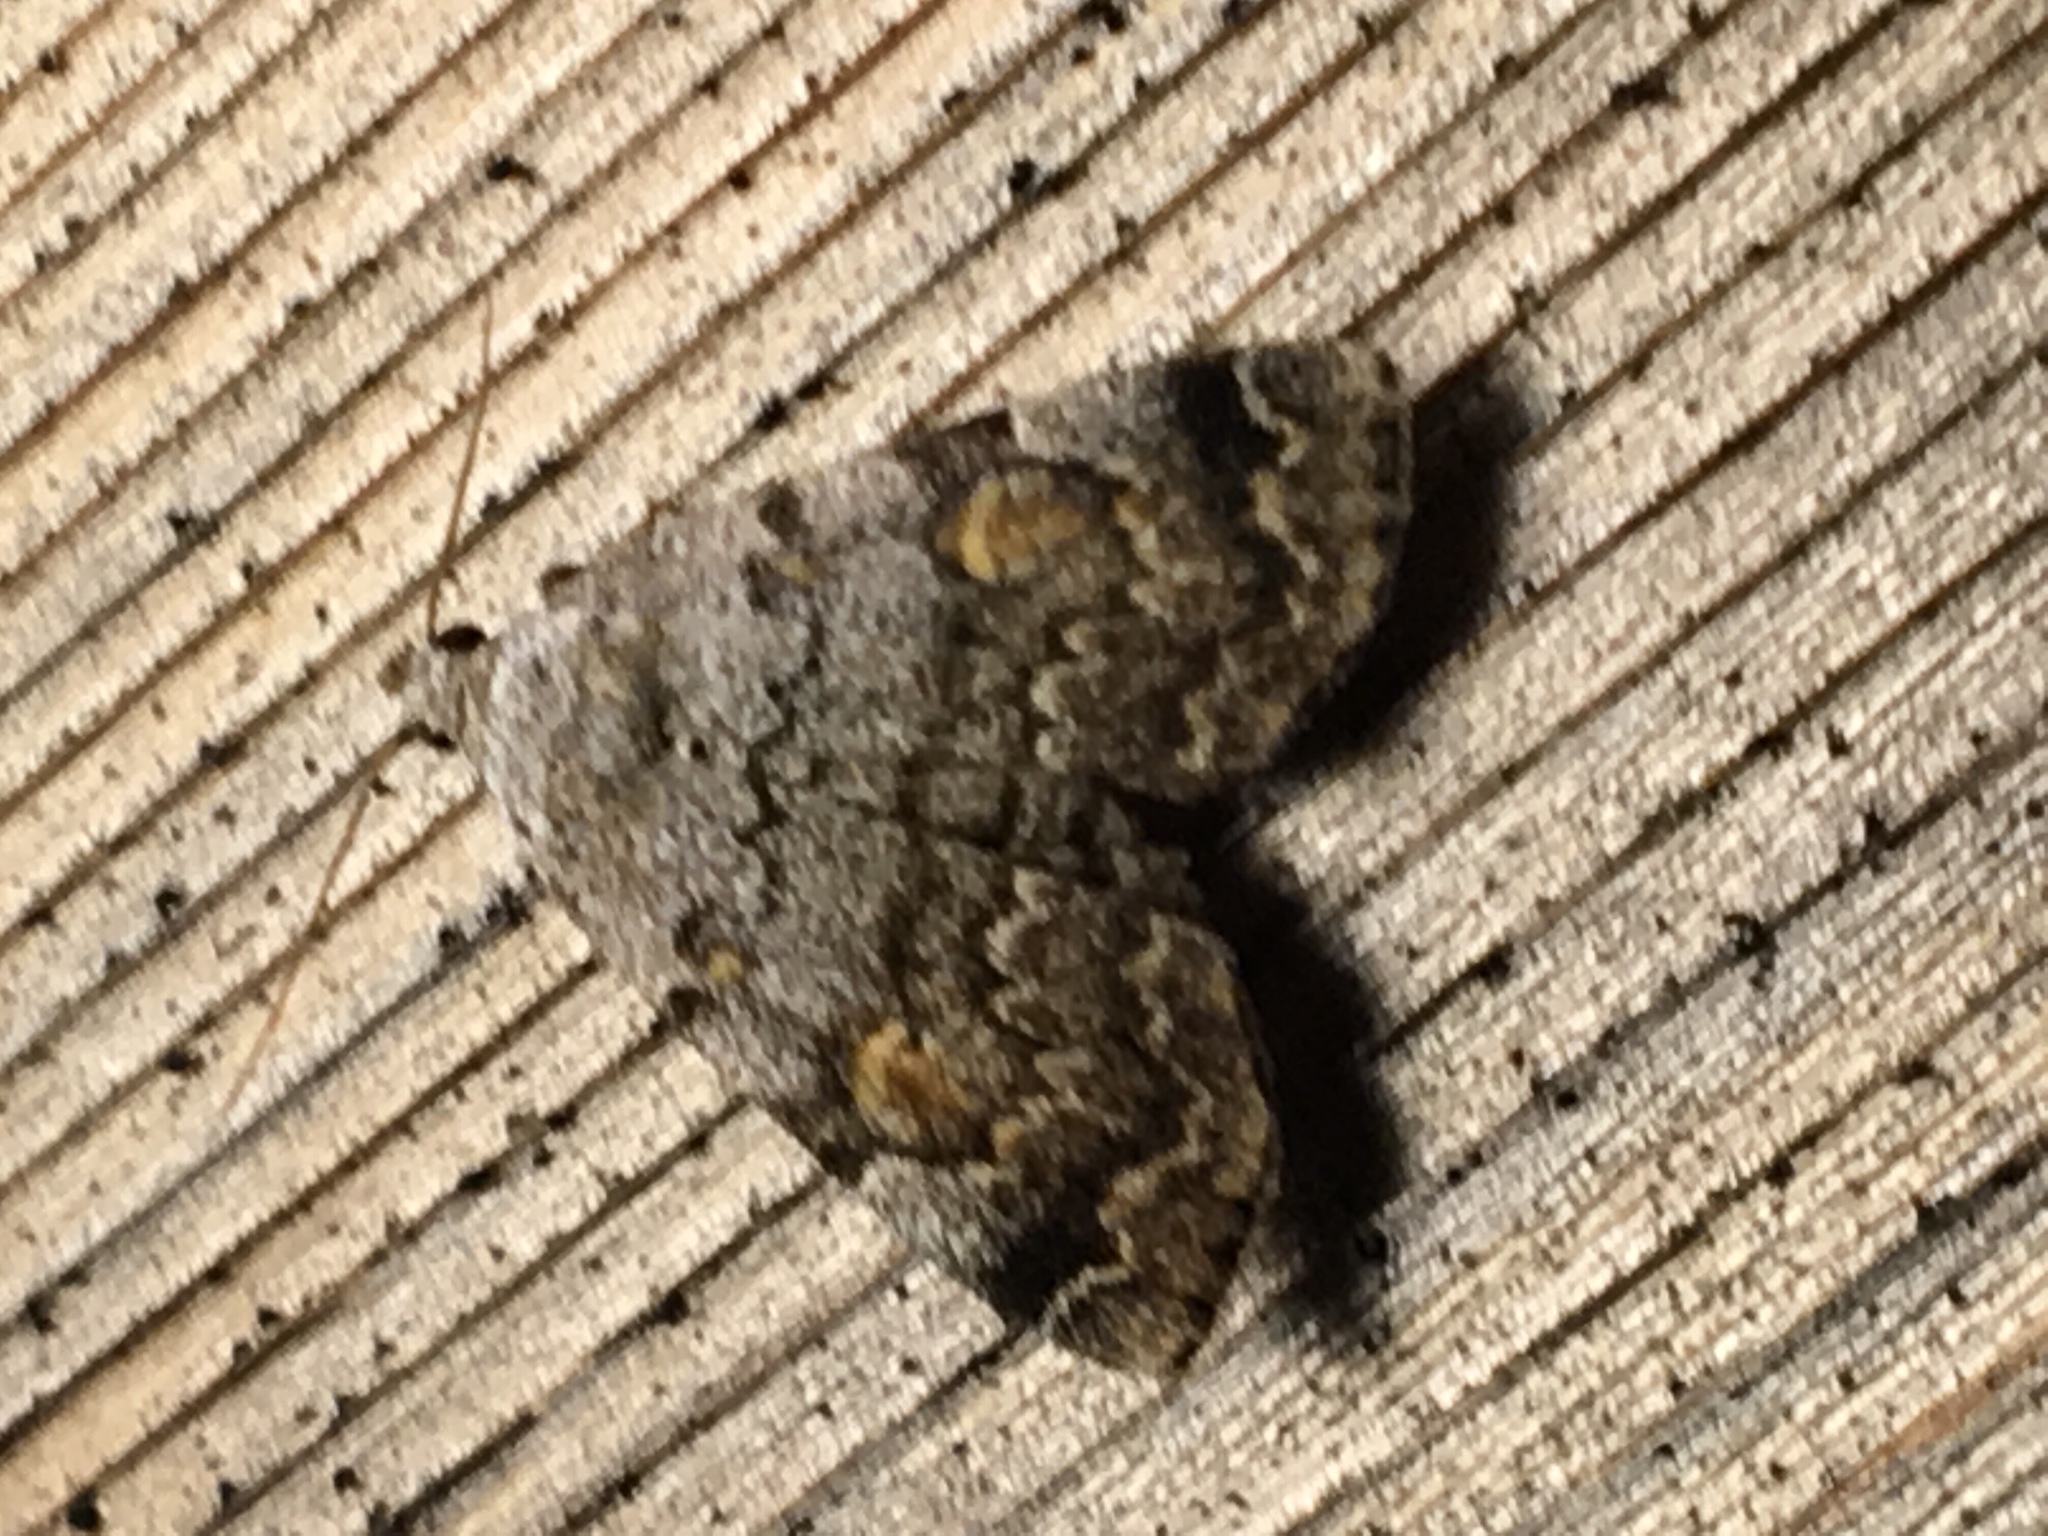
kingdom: Animalia
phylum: Arthropoda
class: Insecta
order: Lepidoptera
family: Erebidae
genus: Idia
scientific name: Idia americalis
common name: American idia moth
